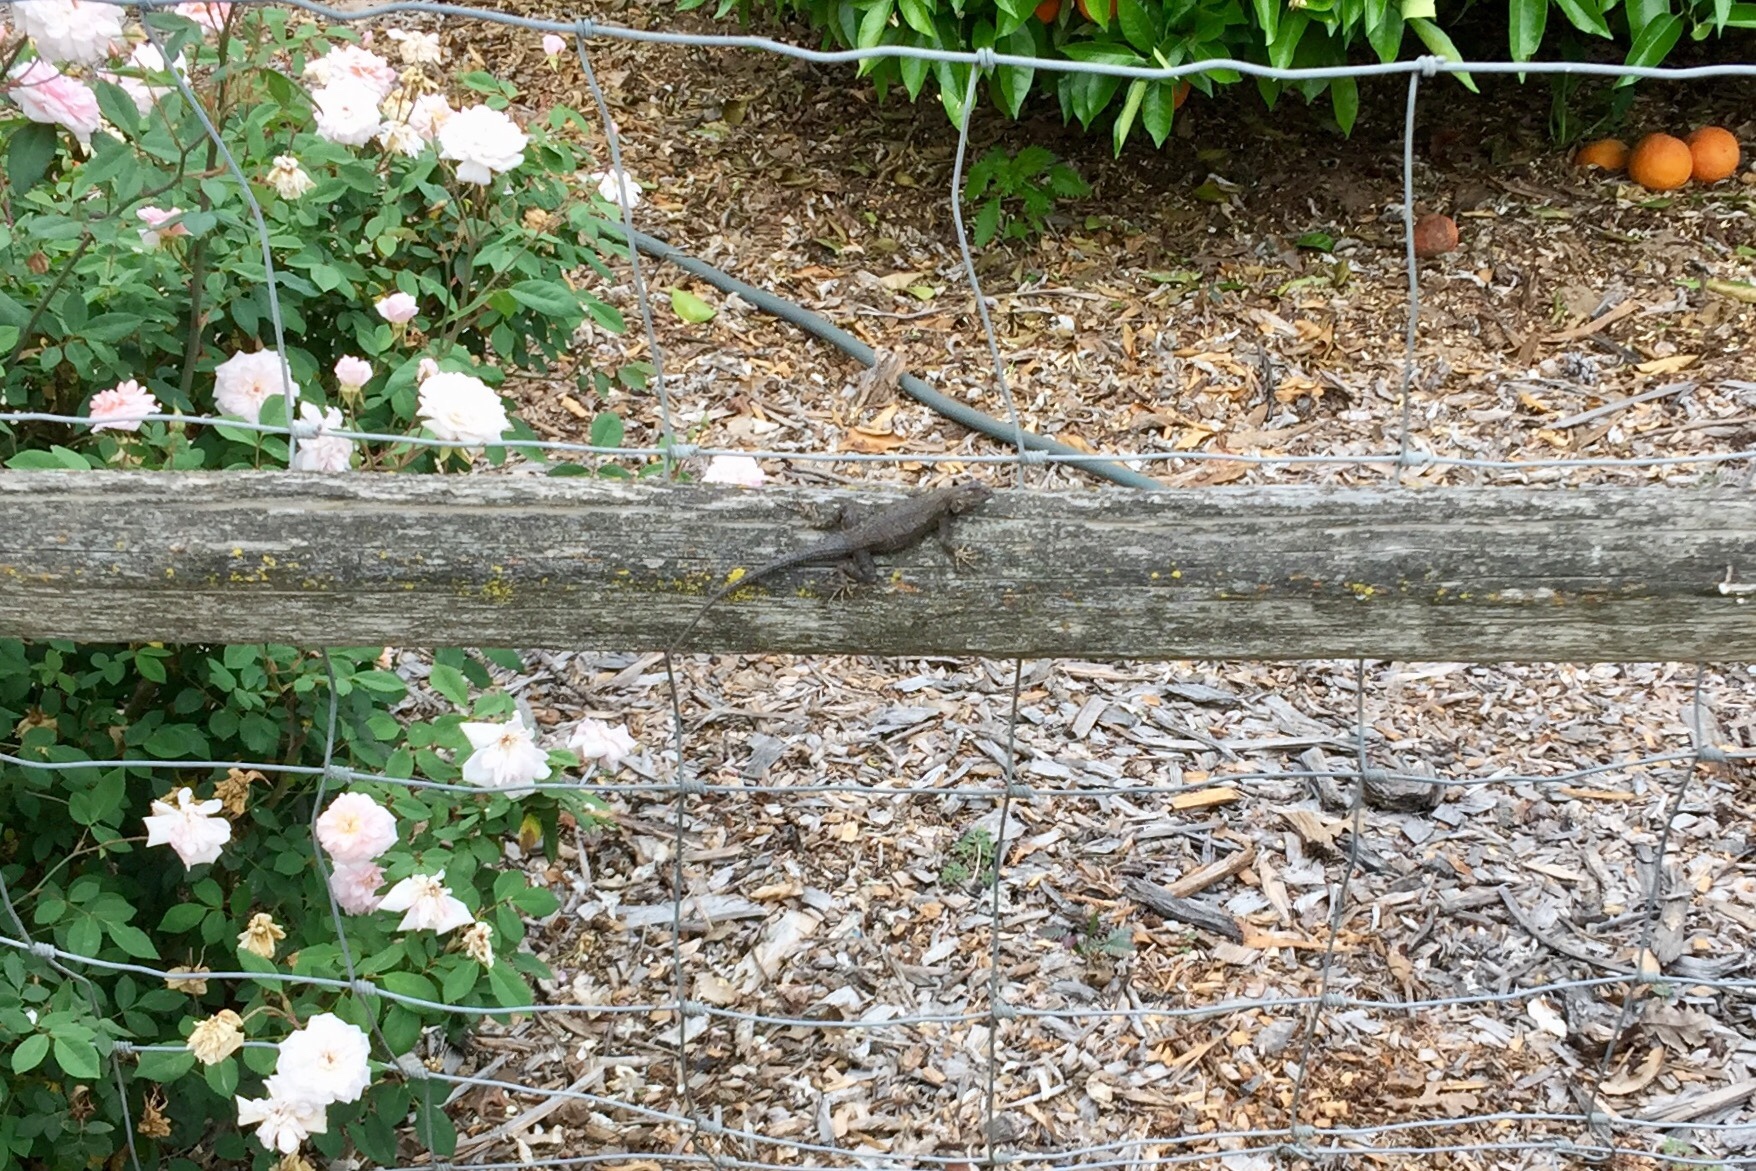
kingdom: Animalia
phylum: Chordata
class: Squamata
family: Phrynosomatidae
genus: Sceloporus
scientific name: Sceloporus occidentalis
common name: Western fence lizard
